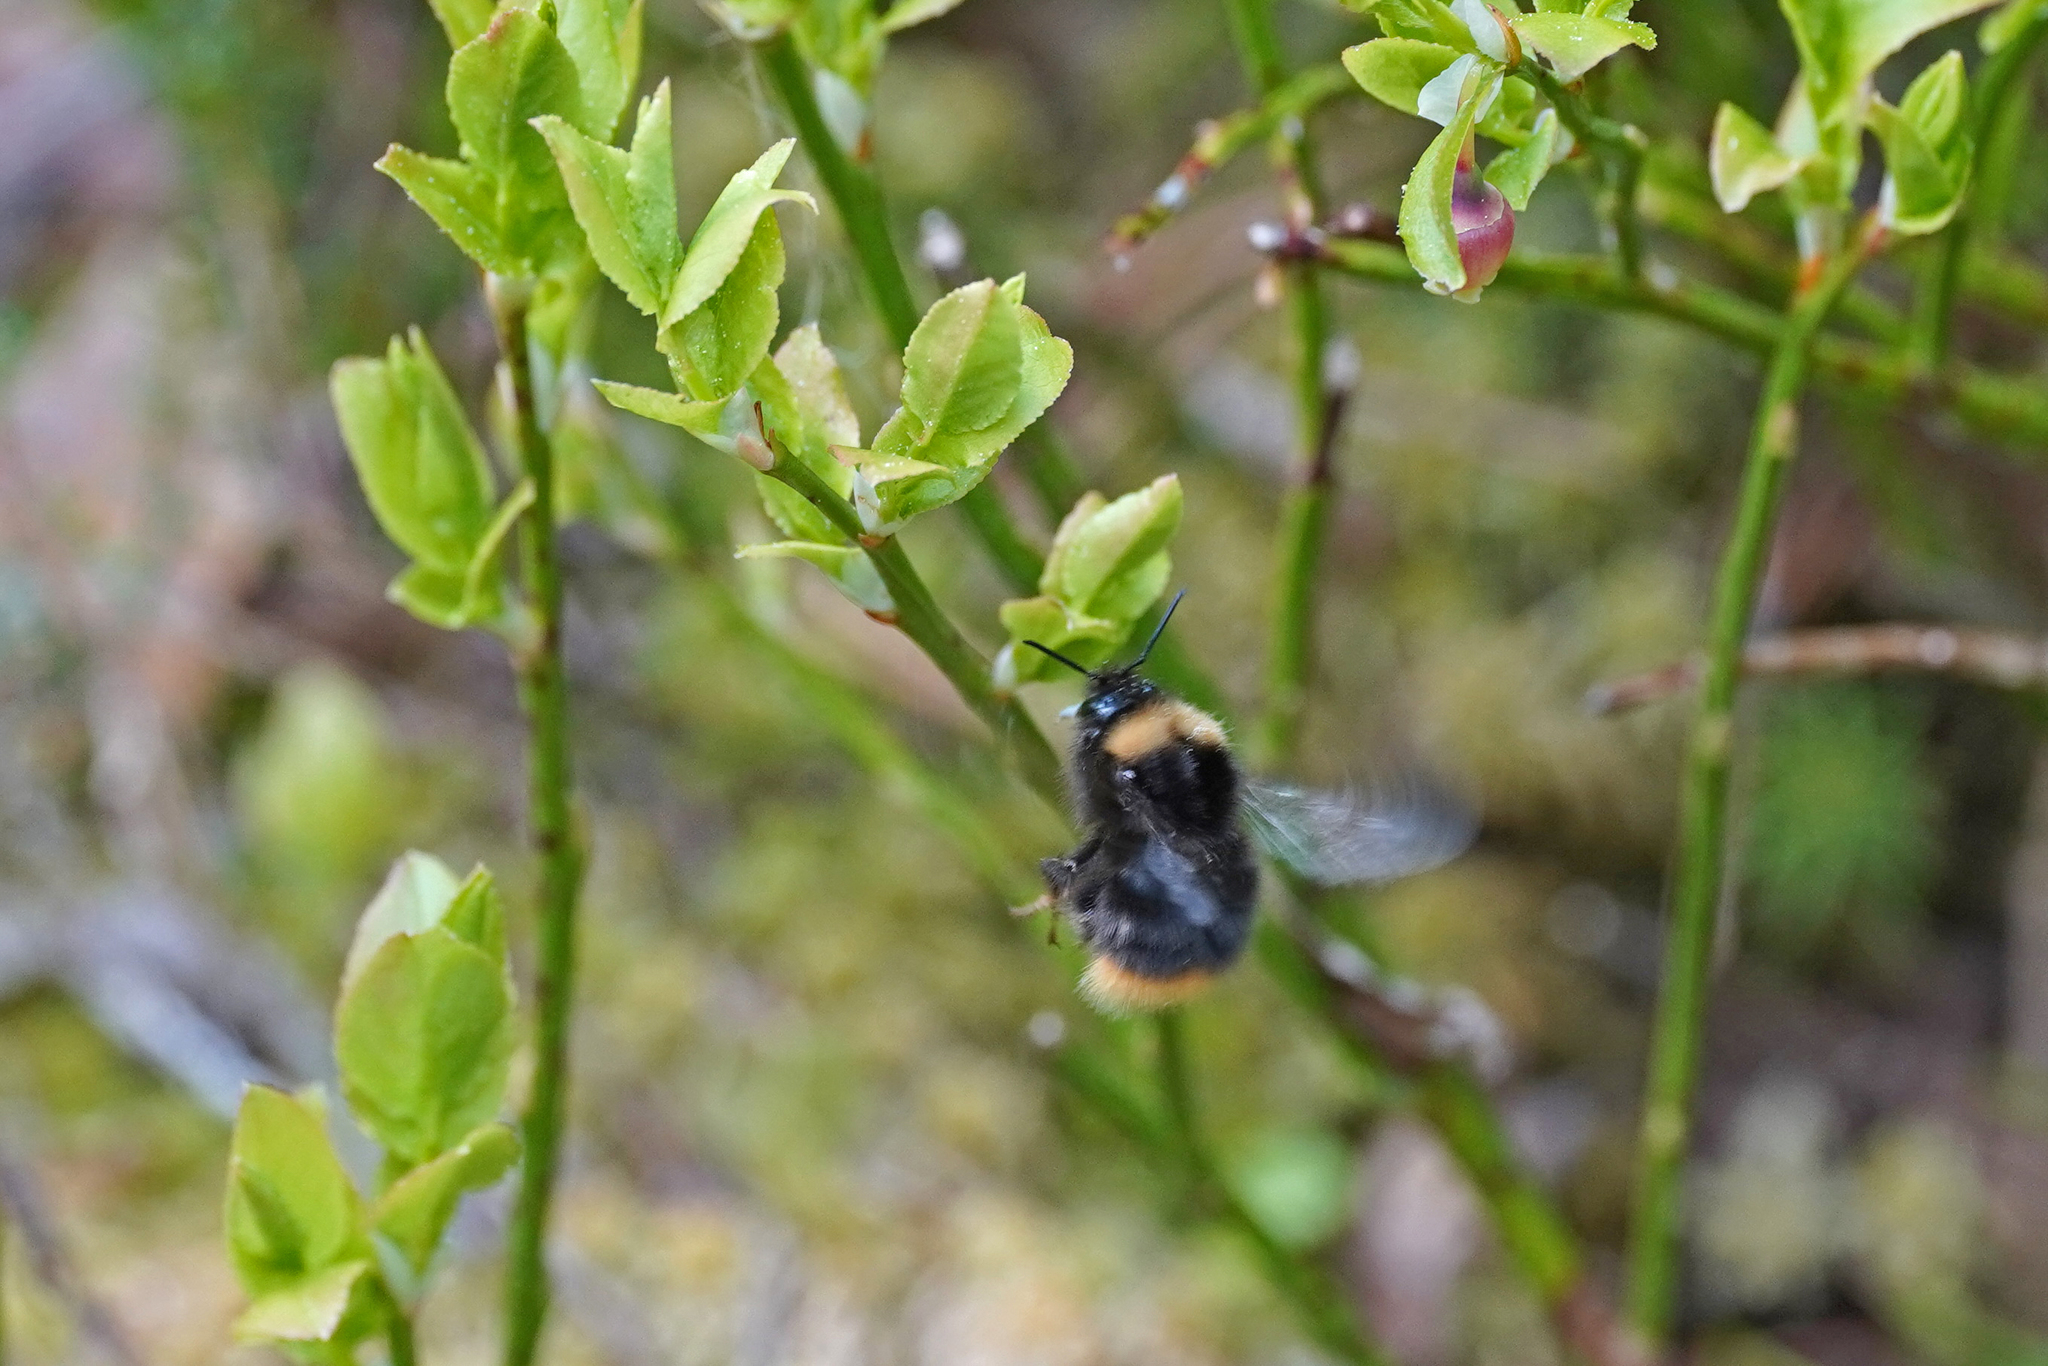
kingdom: Animalia
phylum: Arthropoda
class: Insecta
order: Hymenoptera
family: Apidae
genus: Bombus
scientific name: Bombus pratorum
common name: Early humble-bee
